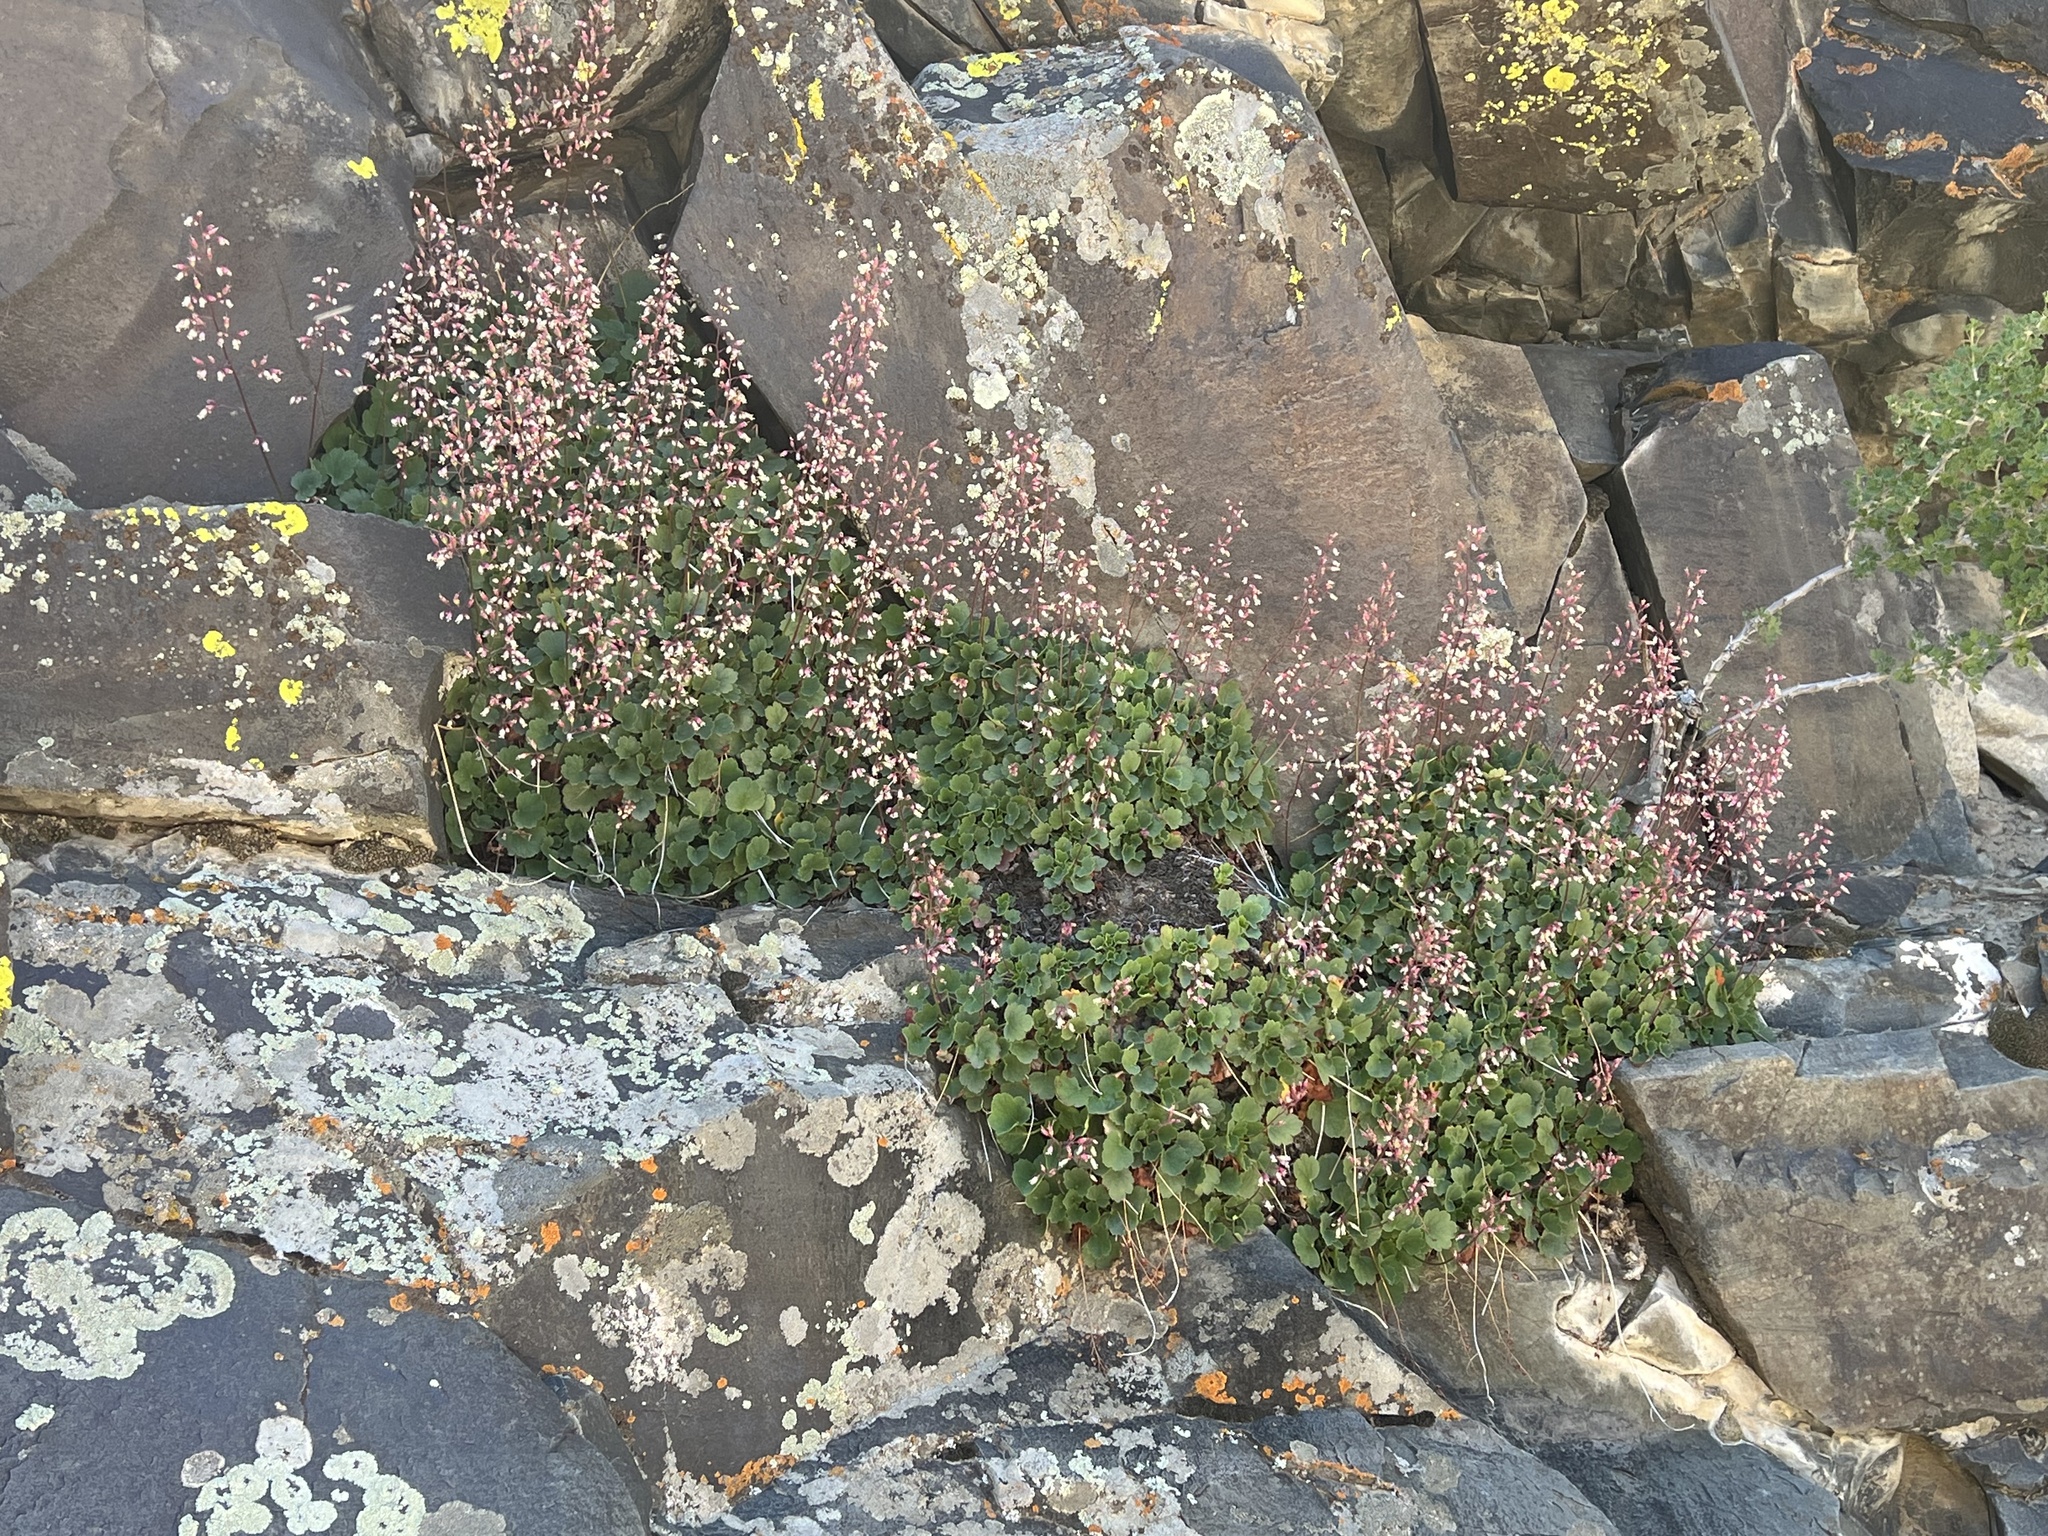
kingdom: Plantae
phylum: Tracheophyta
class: Magnoliopsida
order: Saxifragales
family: Saxifragaceae
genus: Heuchera
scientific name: Heuchera rubescens
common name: Jack-o'the-rocks
